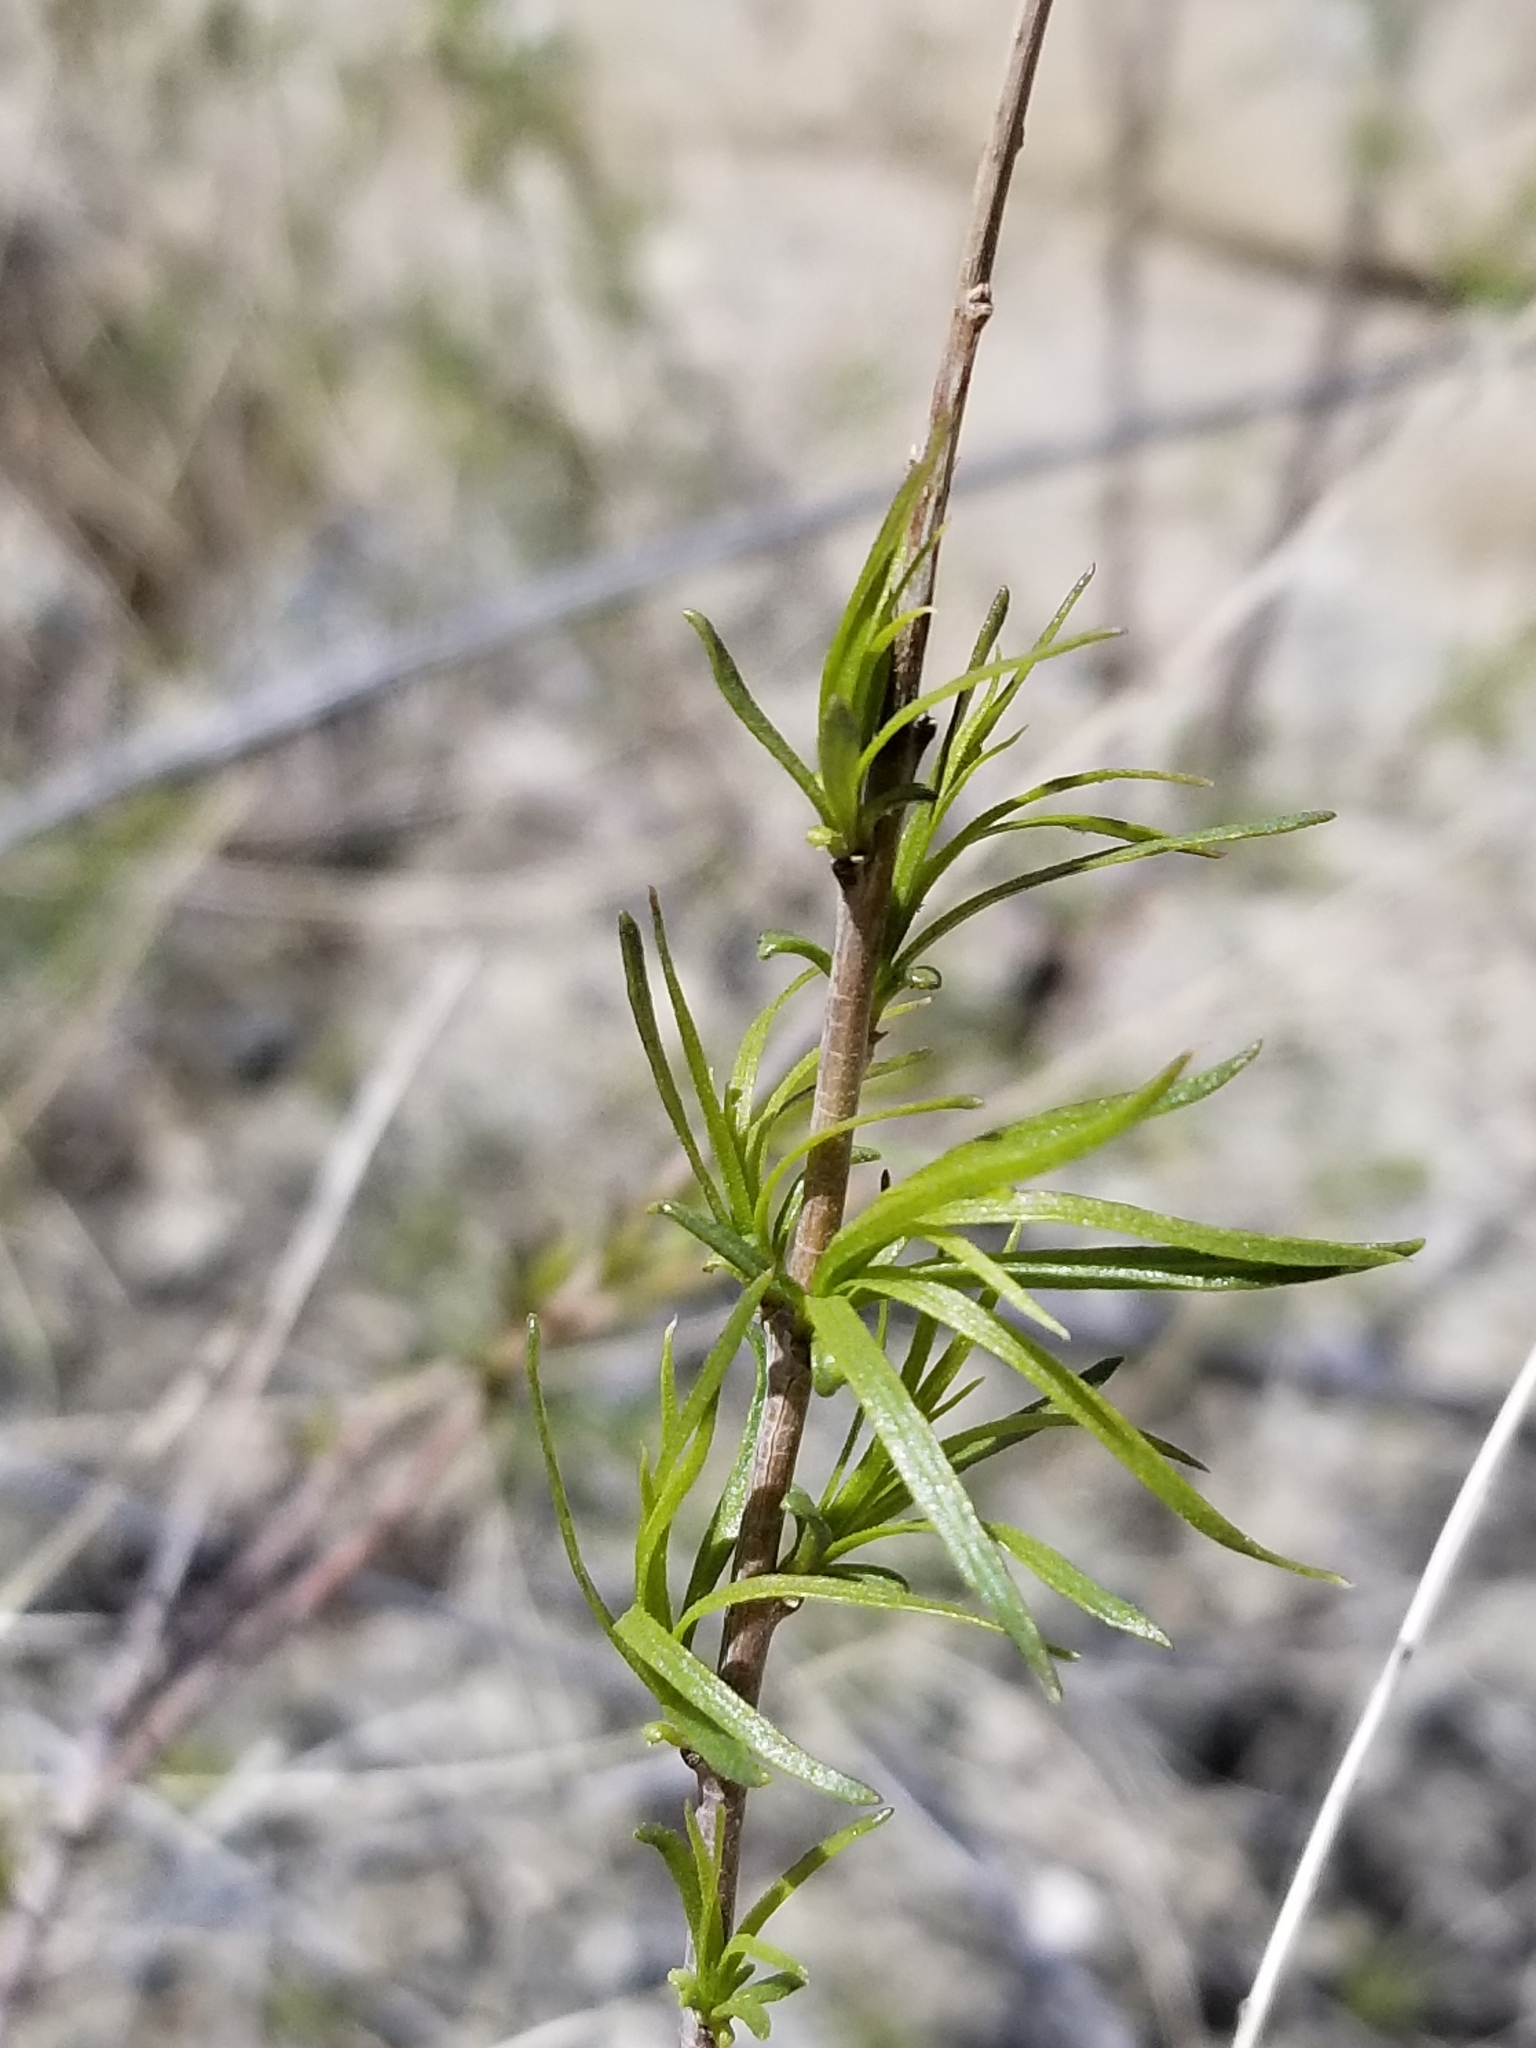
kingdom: Plantae
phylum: Tracheophyta
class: Magnoliopsida
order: Lamiales
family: Bignoniaceae
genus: Chilopsis
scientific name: Chilopsis linearis
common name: Desert-willow
